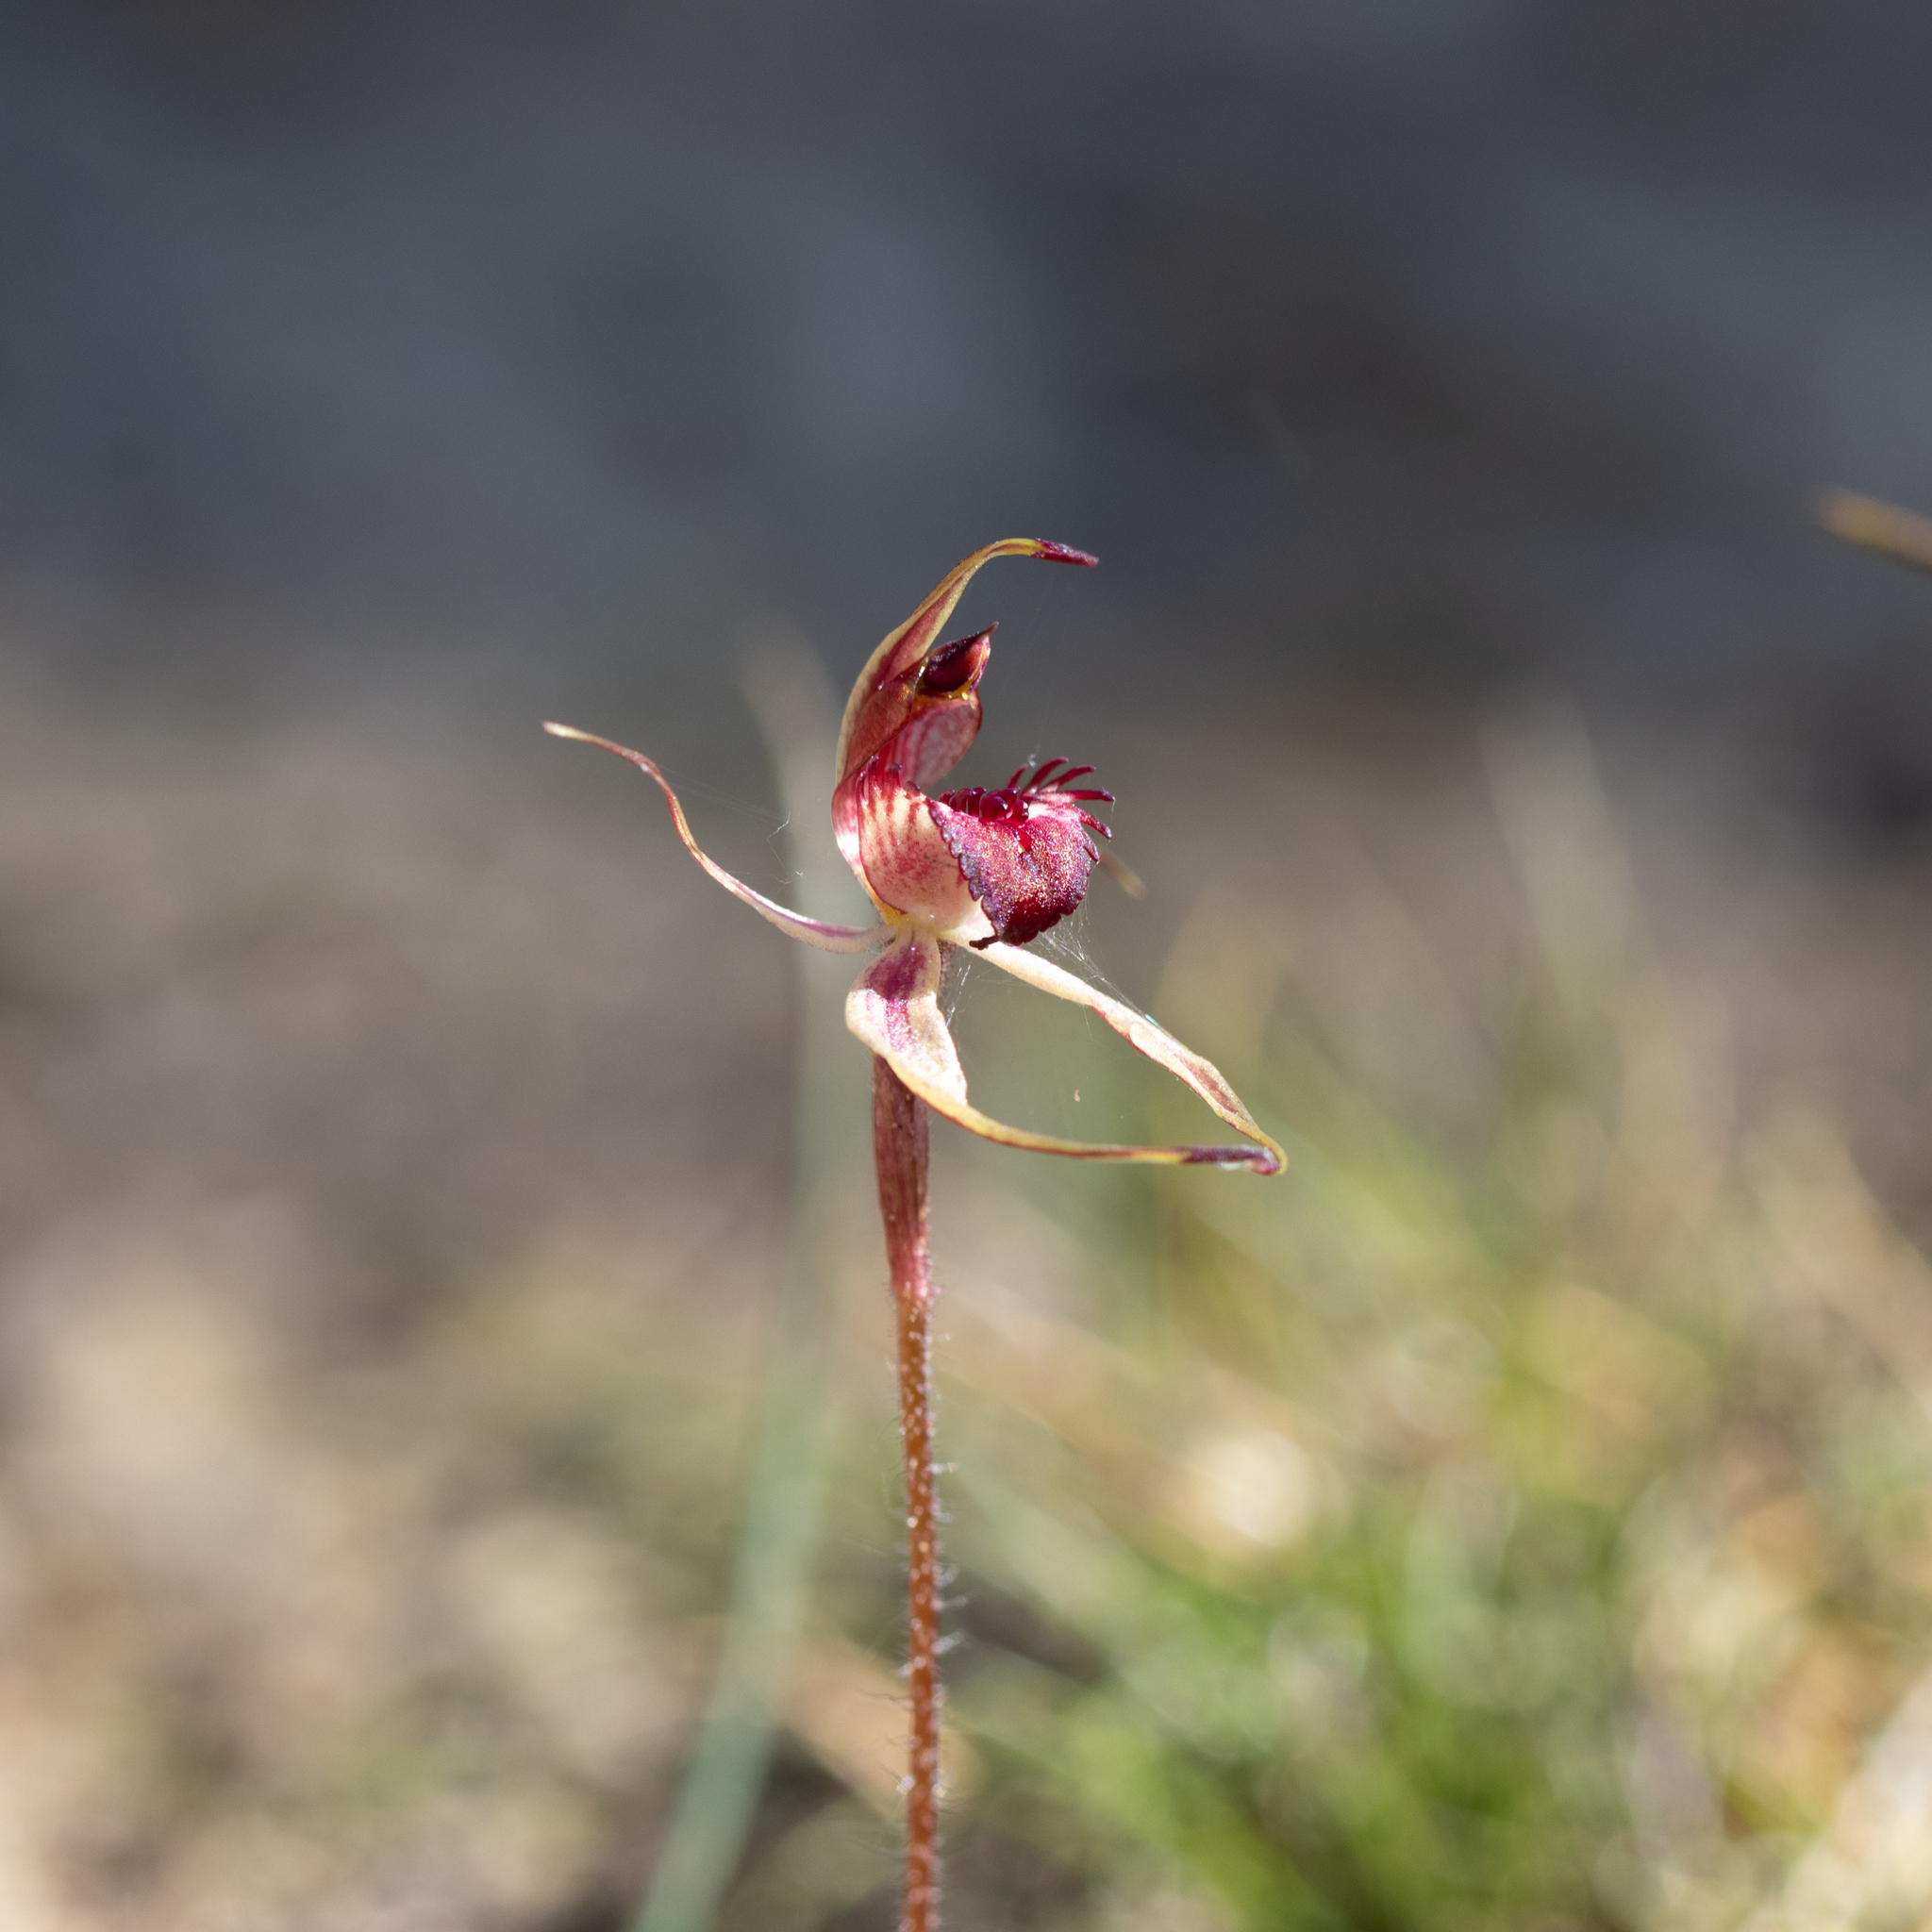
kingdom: Plantae
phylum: Tracheophyta
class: Liliopsida
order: Asparagales
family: Orchidaceae
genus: Caladenia
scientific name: Caladenia reticulata
